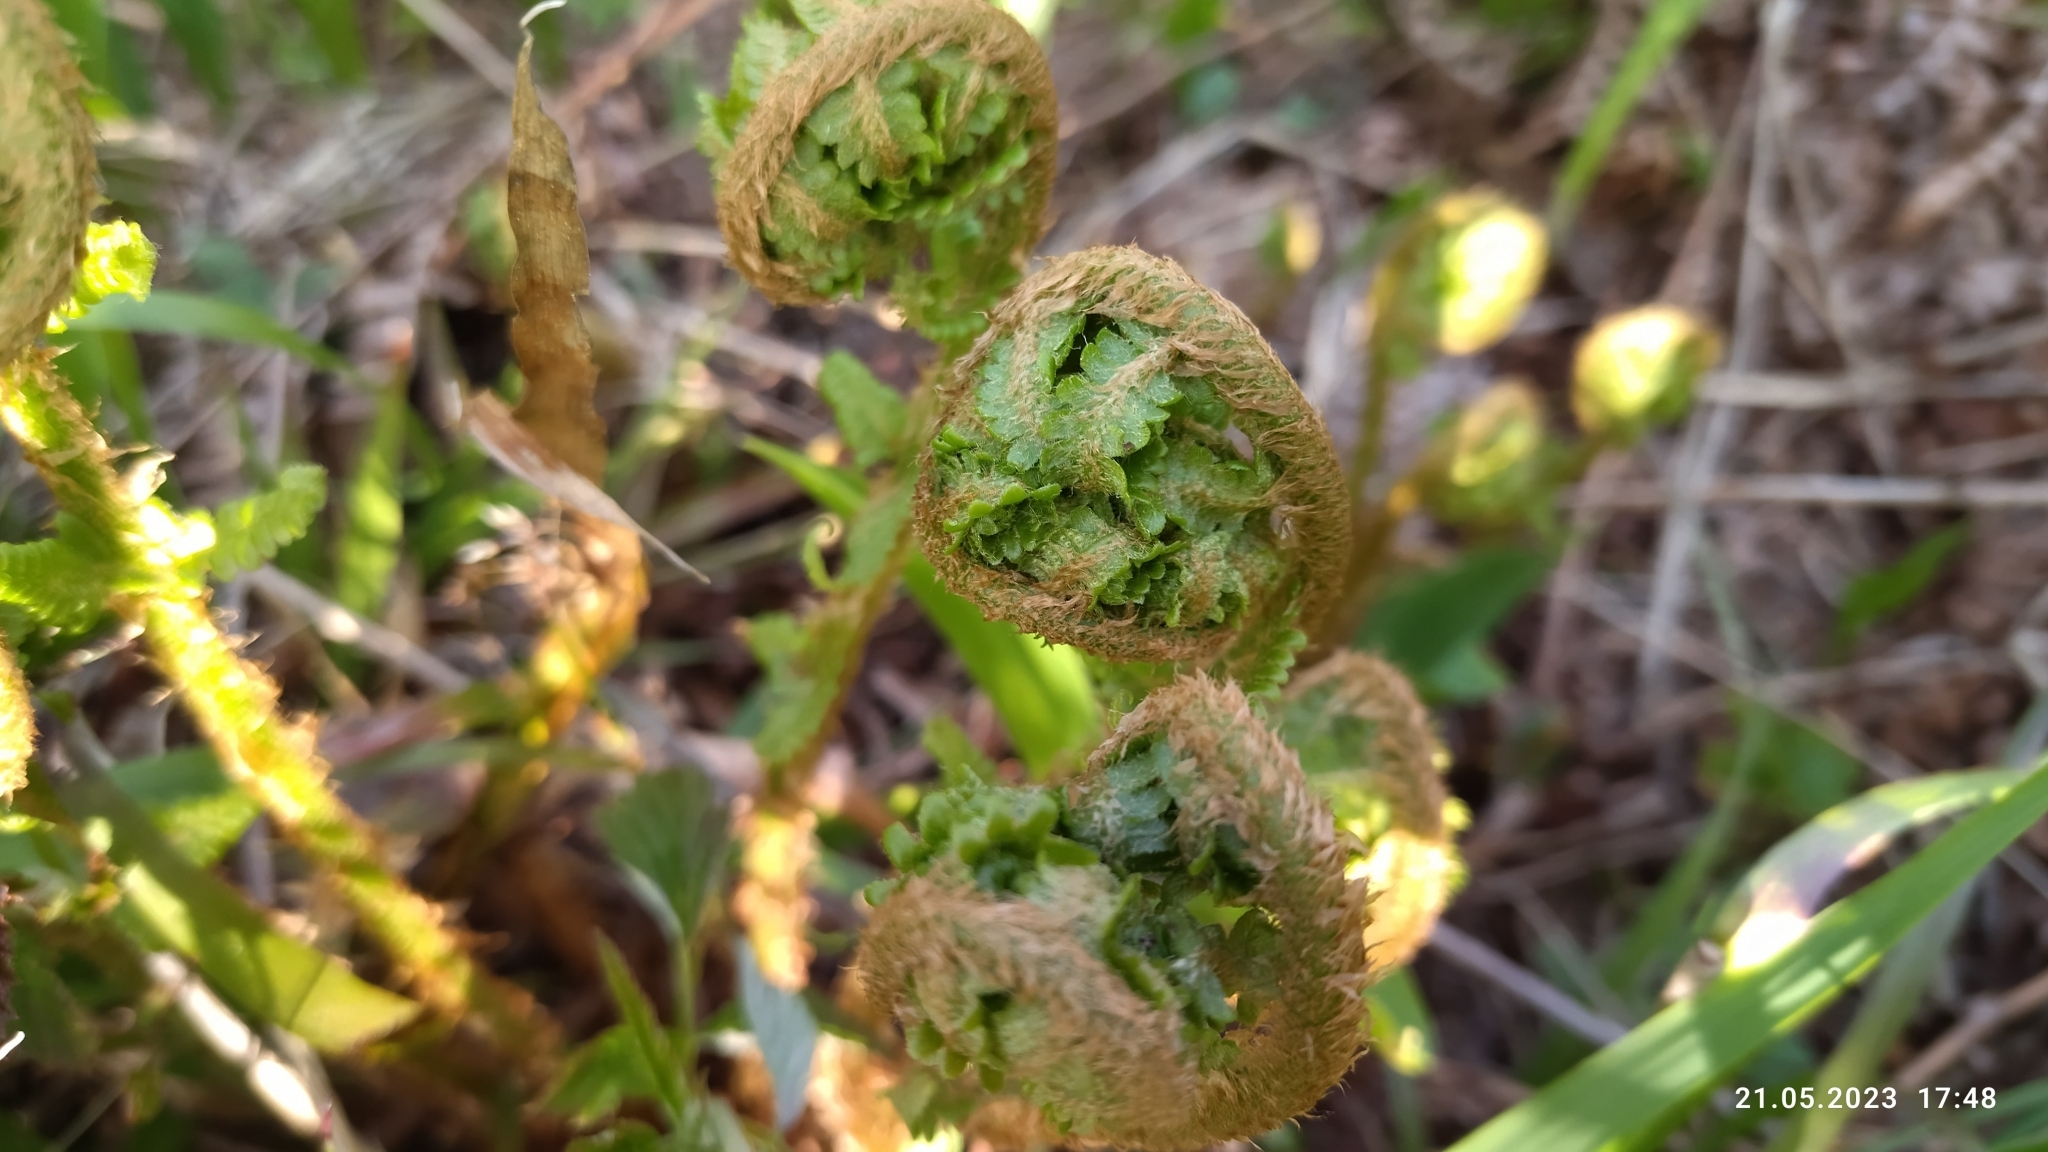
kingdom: Plantae
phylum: Tracheophyta
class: Polypodiopsida
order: Polypodiales
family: Dryopteridaceae
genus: Dryopteris
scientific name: Dryopteris filix-mas
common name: Male fern
